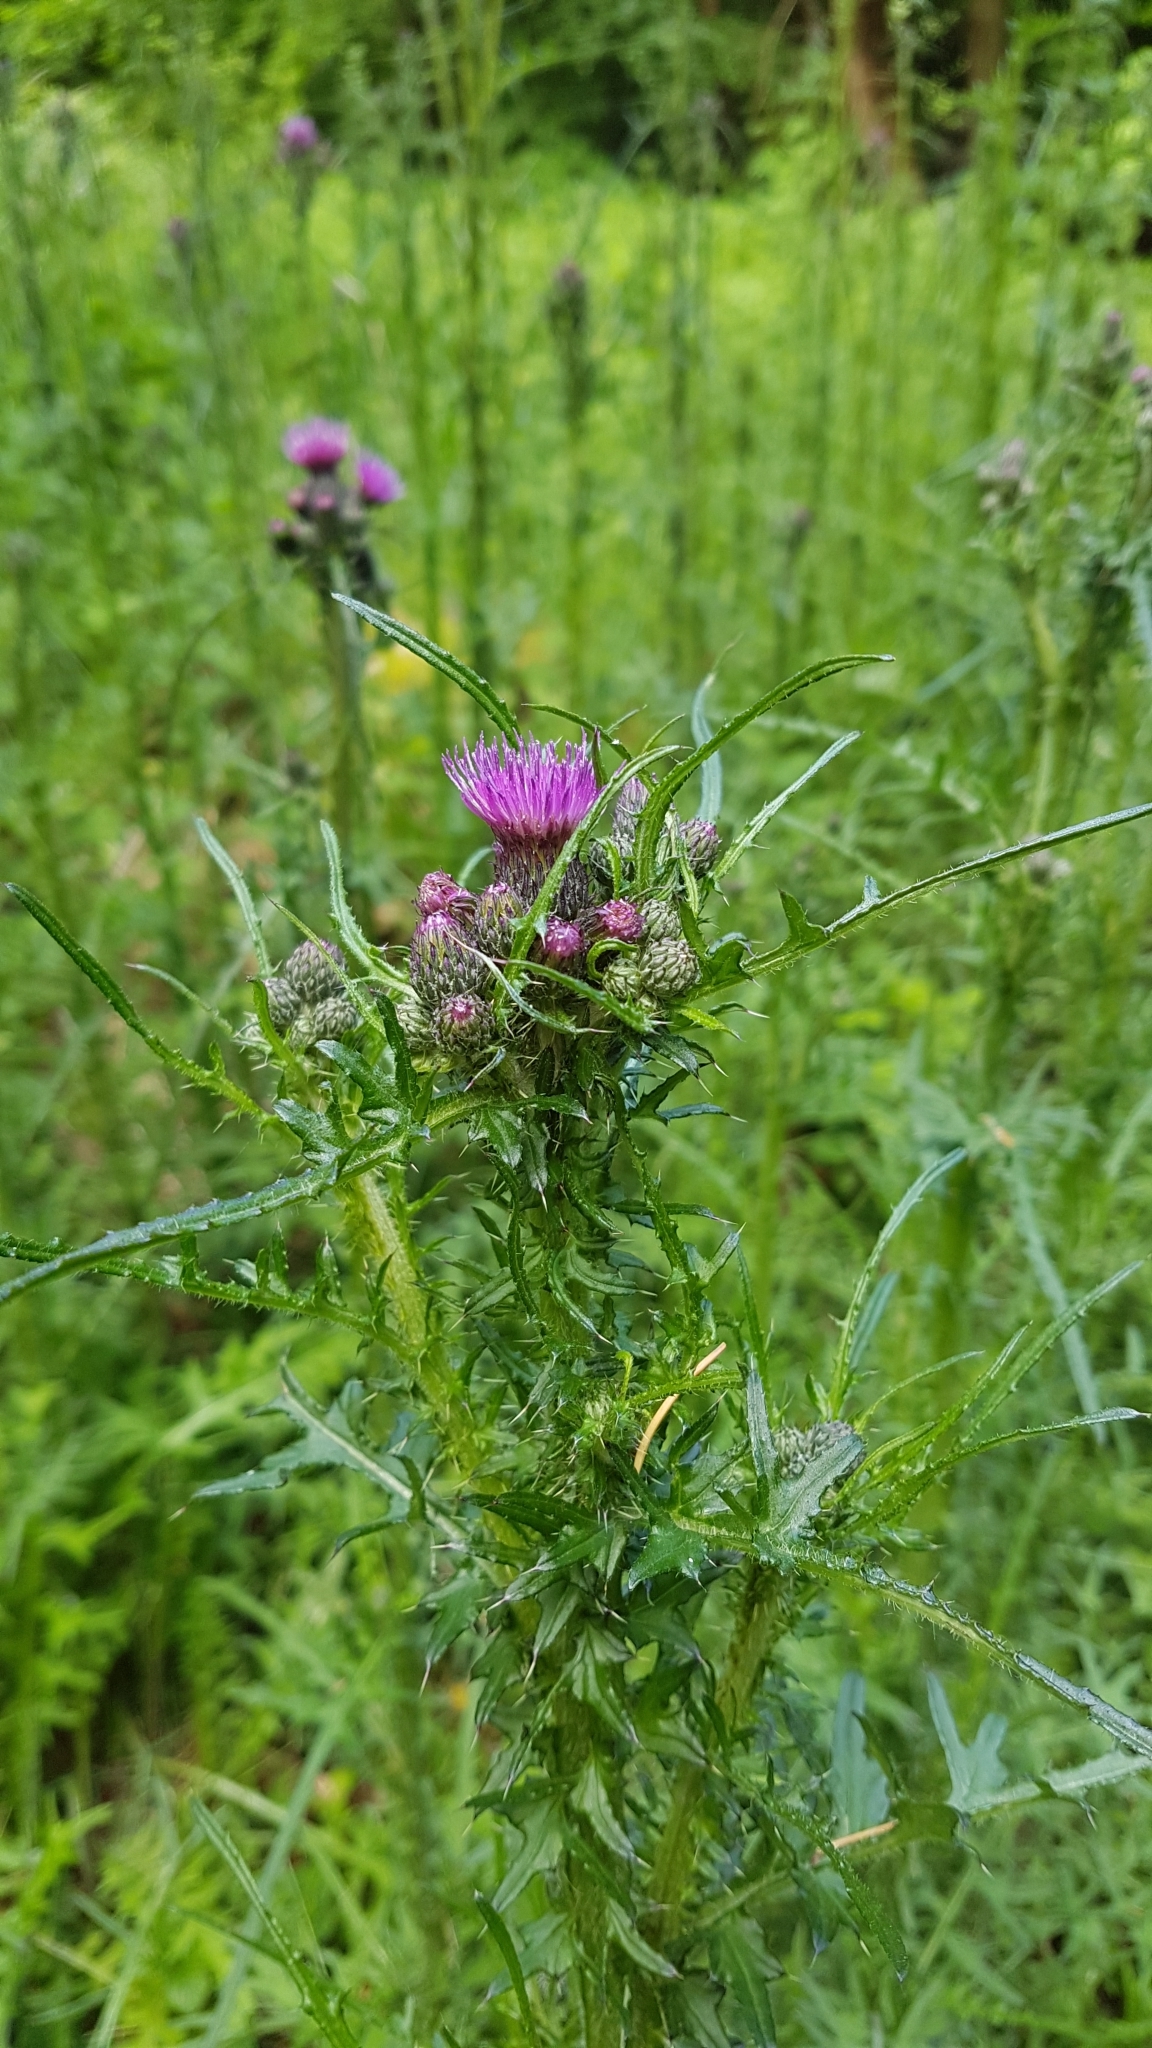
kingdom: Plantae
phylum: Tracheophyta
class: Magnoliopsida
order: Asterales
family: Asteraceae
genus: Cirsium
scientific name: Cirsium palustre
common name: Marsh thistle
